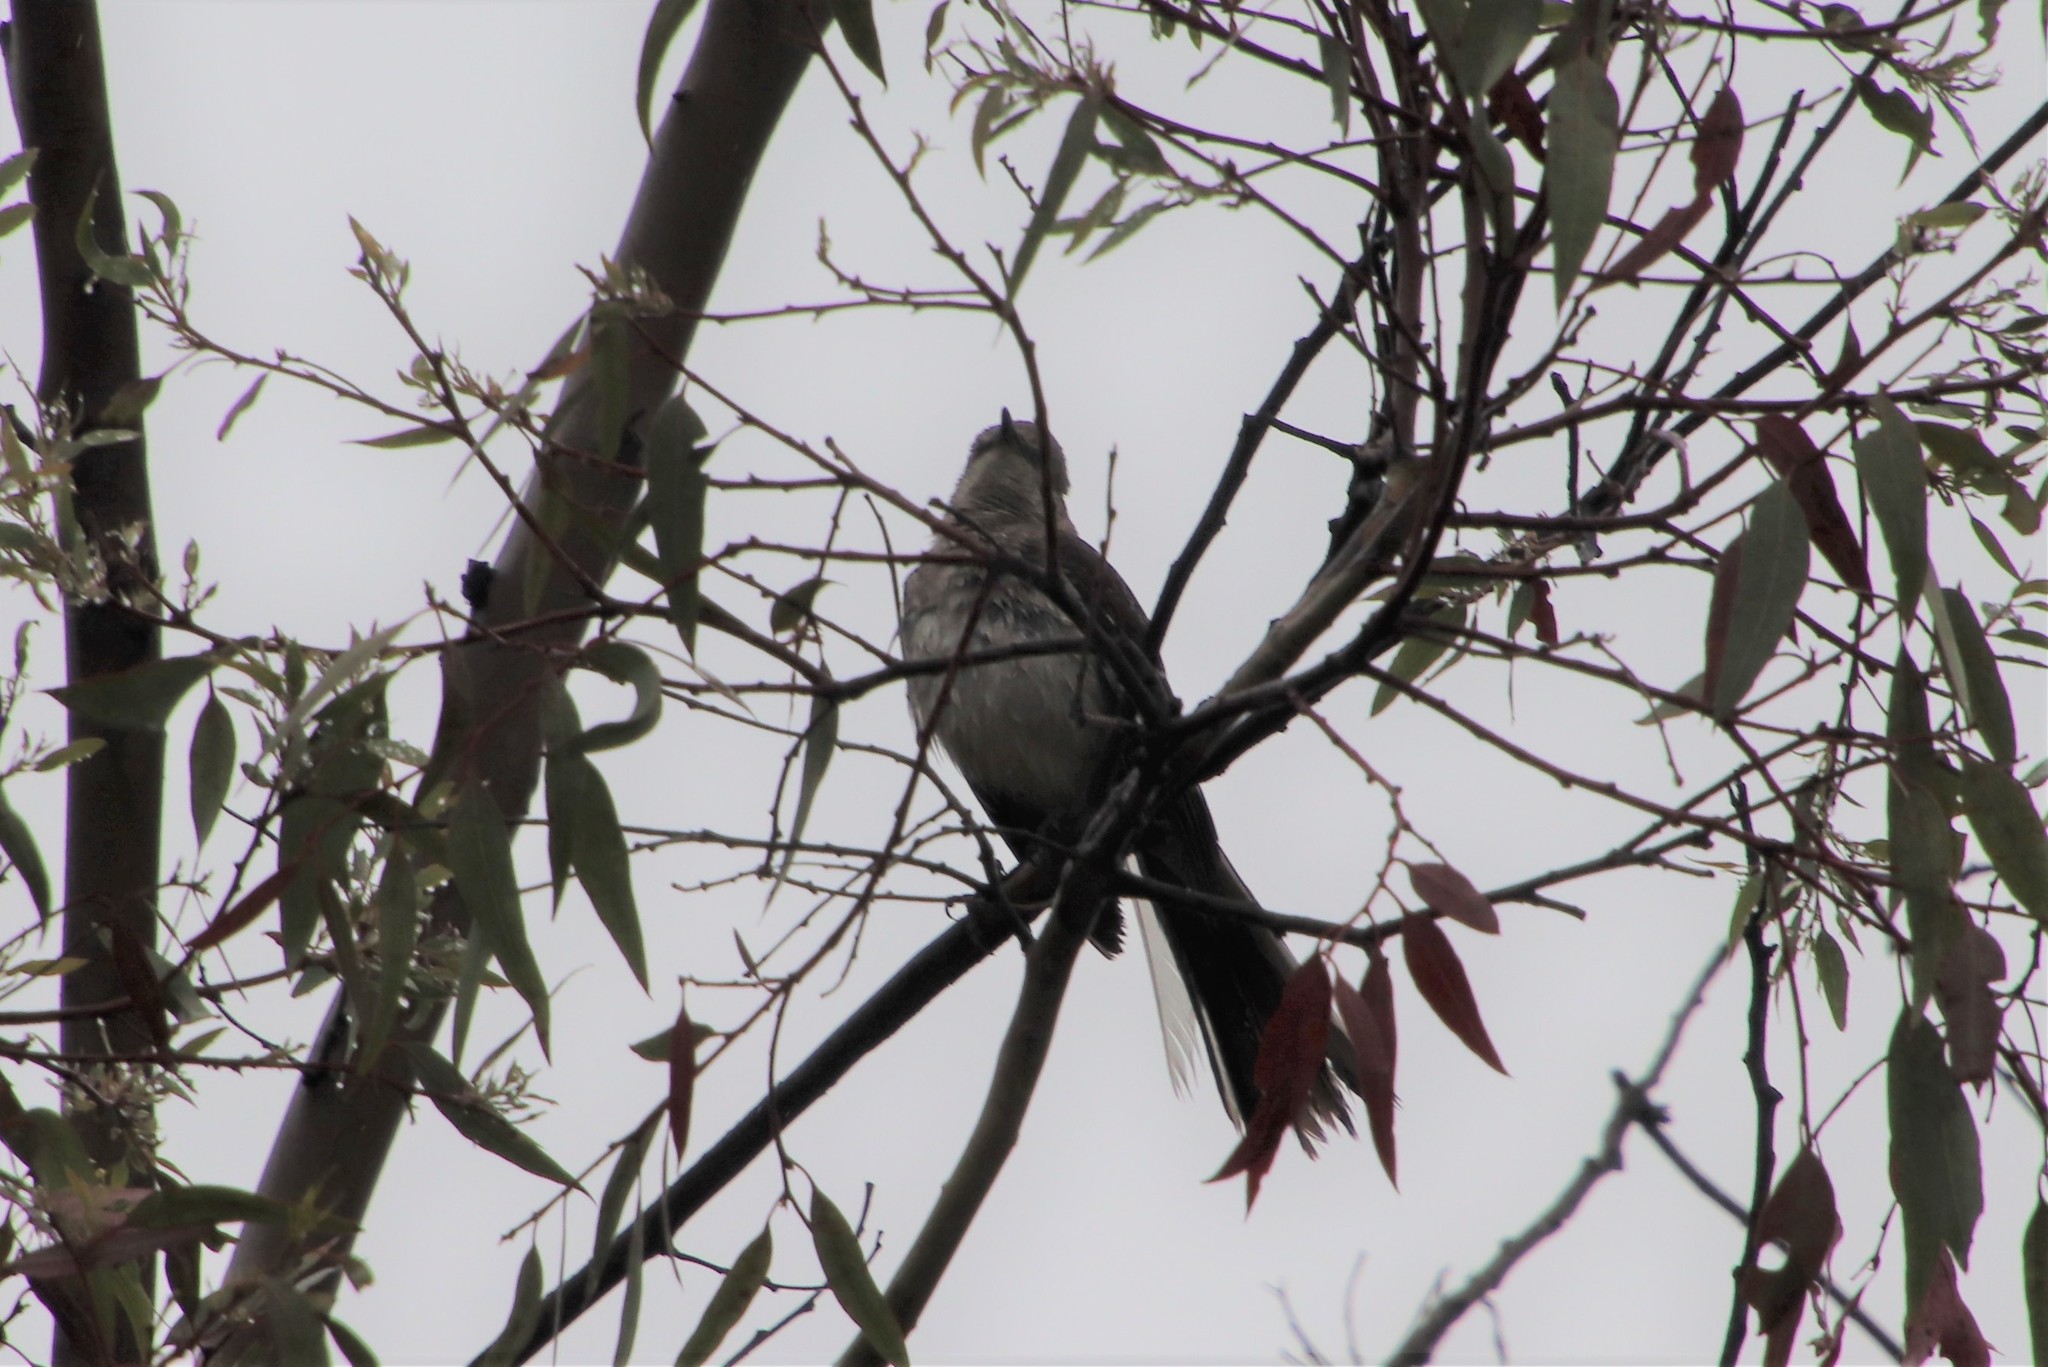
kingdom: Animalia
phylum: Chordata
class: Aves
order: Passeriformes
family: Mimidae
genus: Mimus
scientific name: Mimus polyglottos
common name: Northern mockingbird
